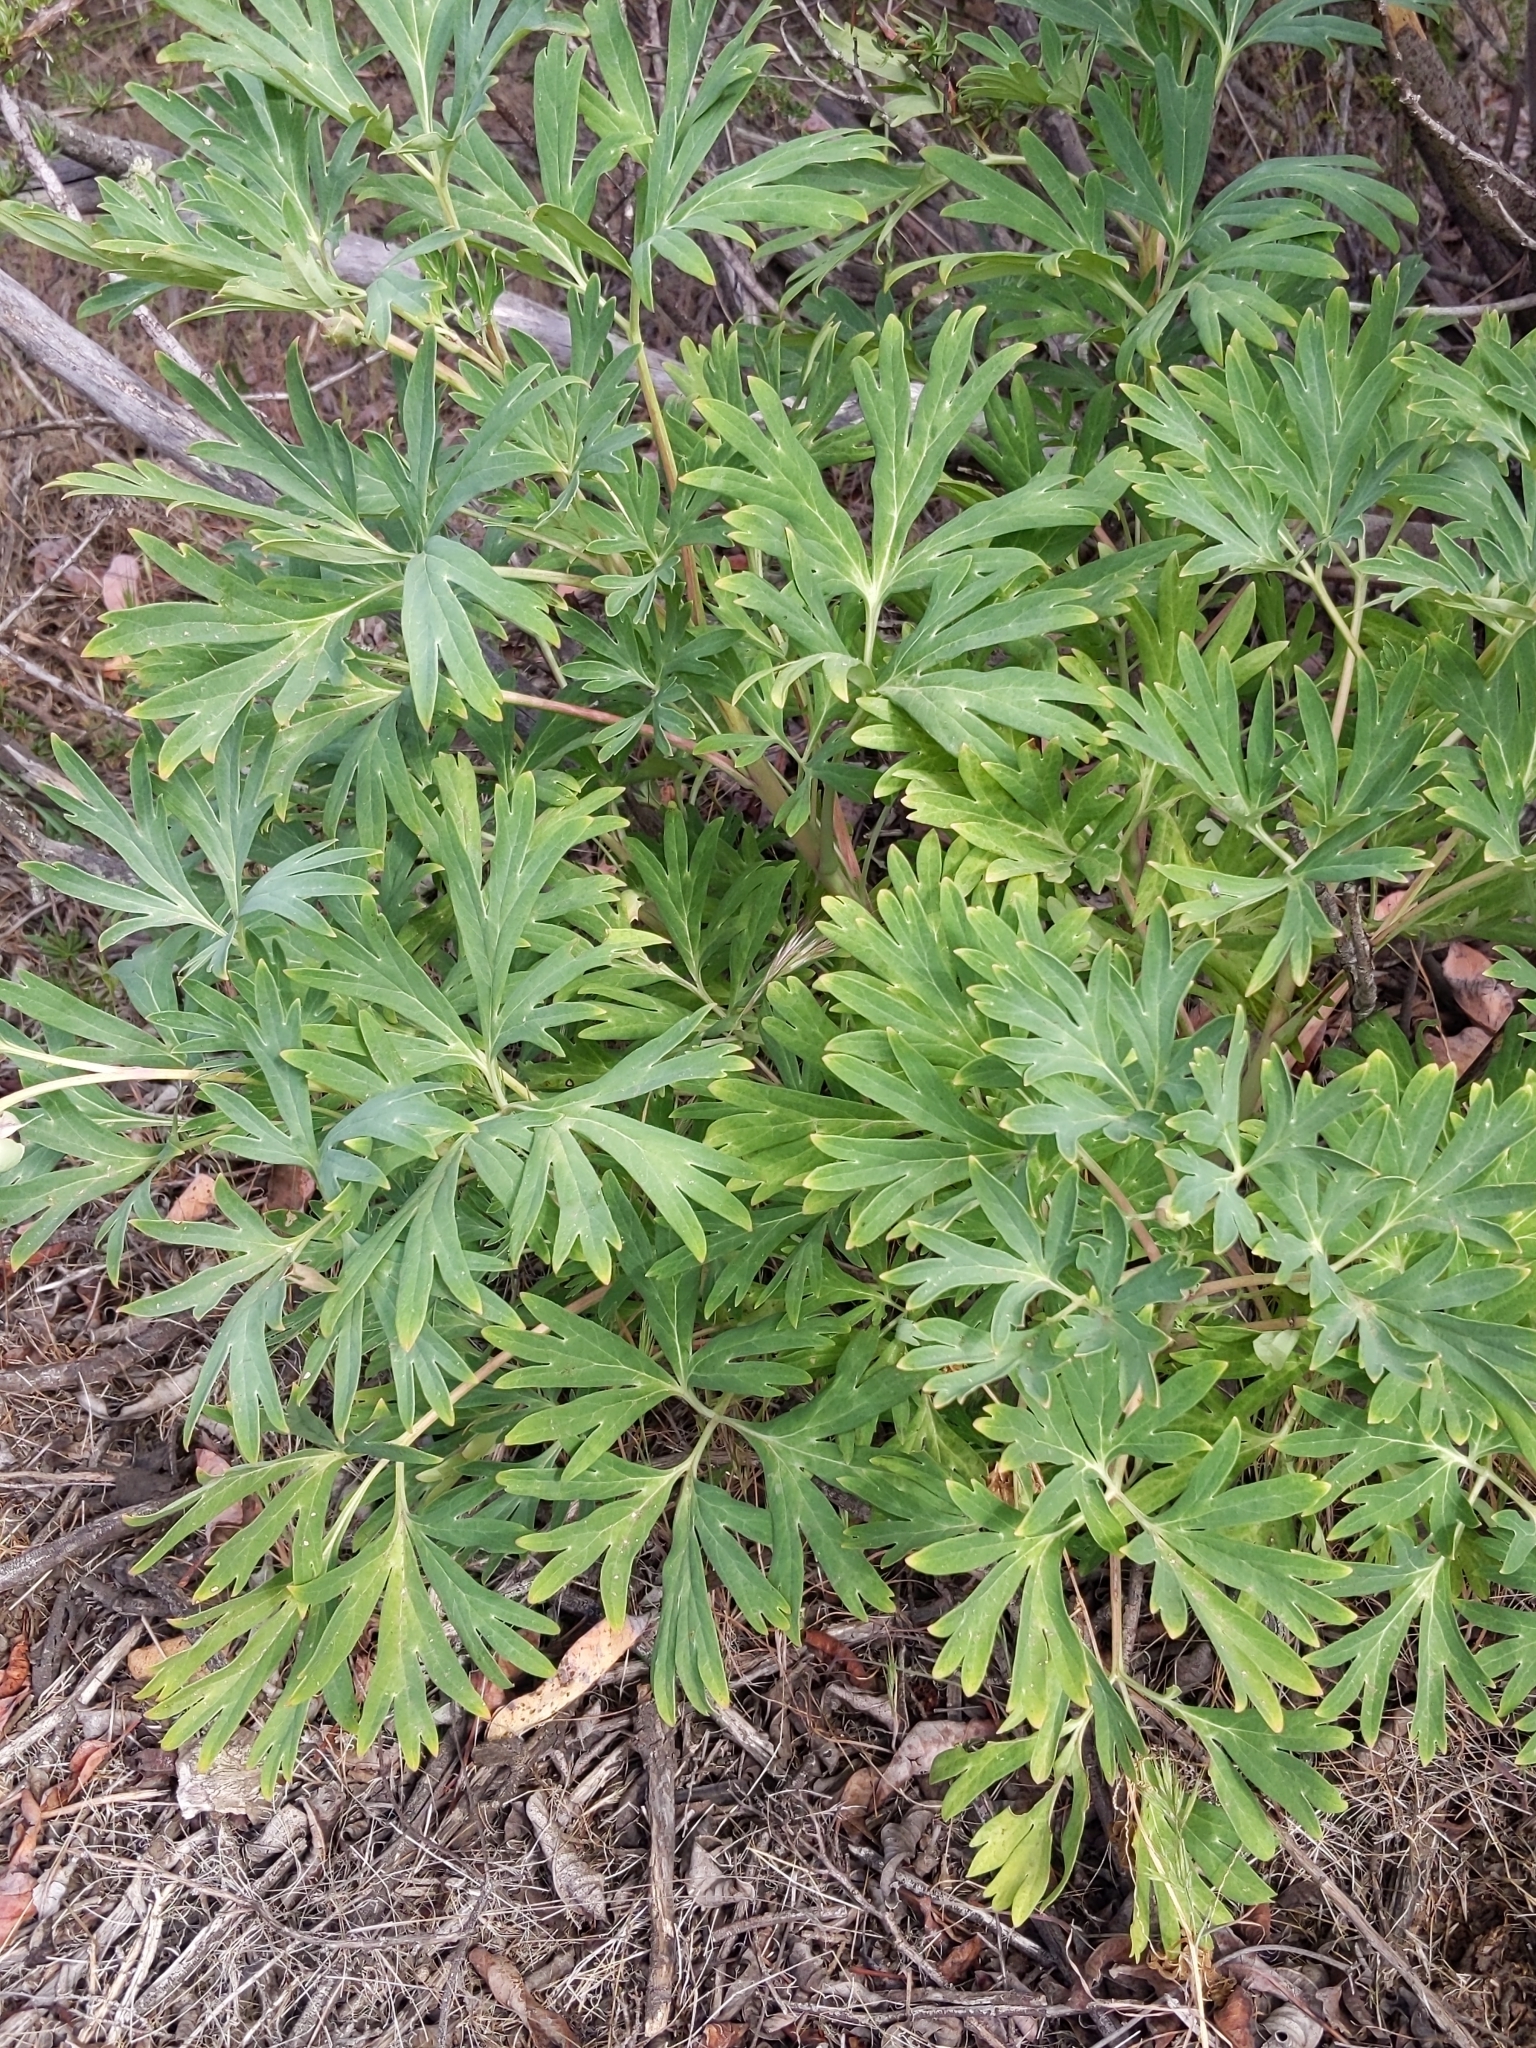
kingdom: Plantae
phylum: Tracheophyta
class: Magnoliopsida
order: Saxifragales
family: Paeoniaceae
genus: Paeonia
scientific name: Paeonia californica
